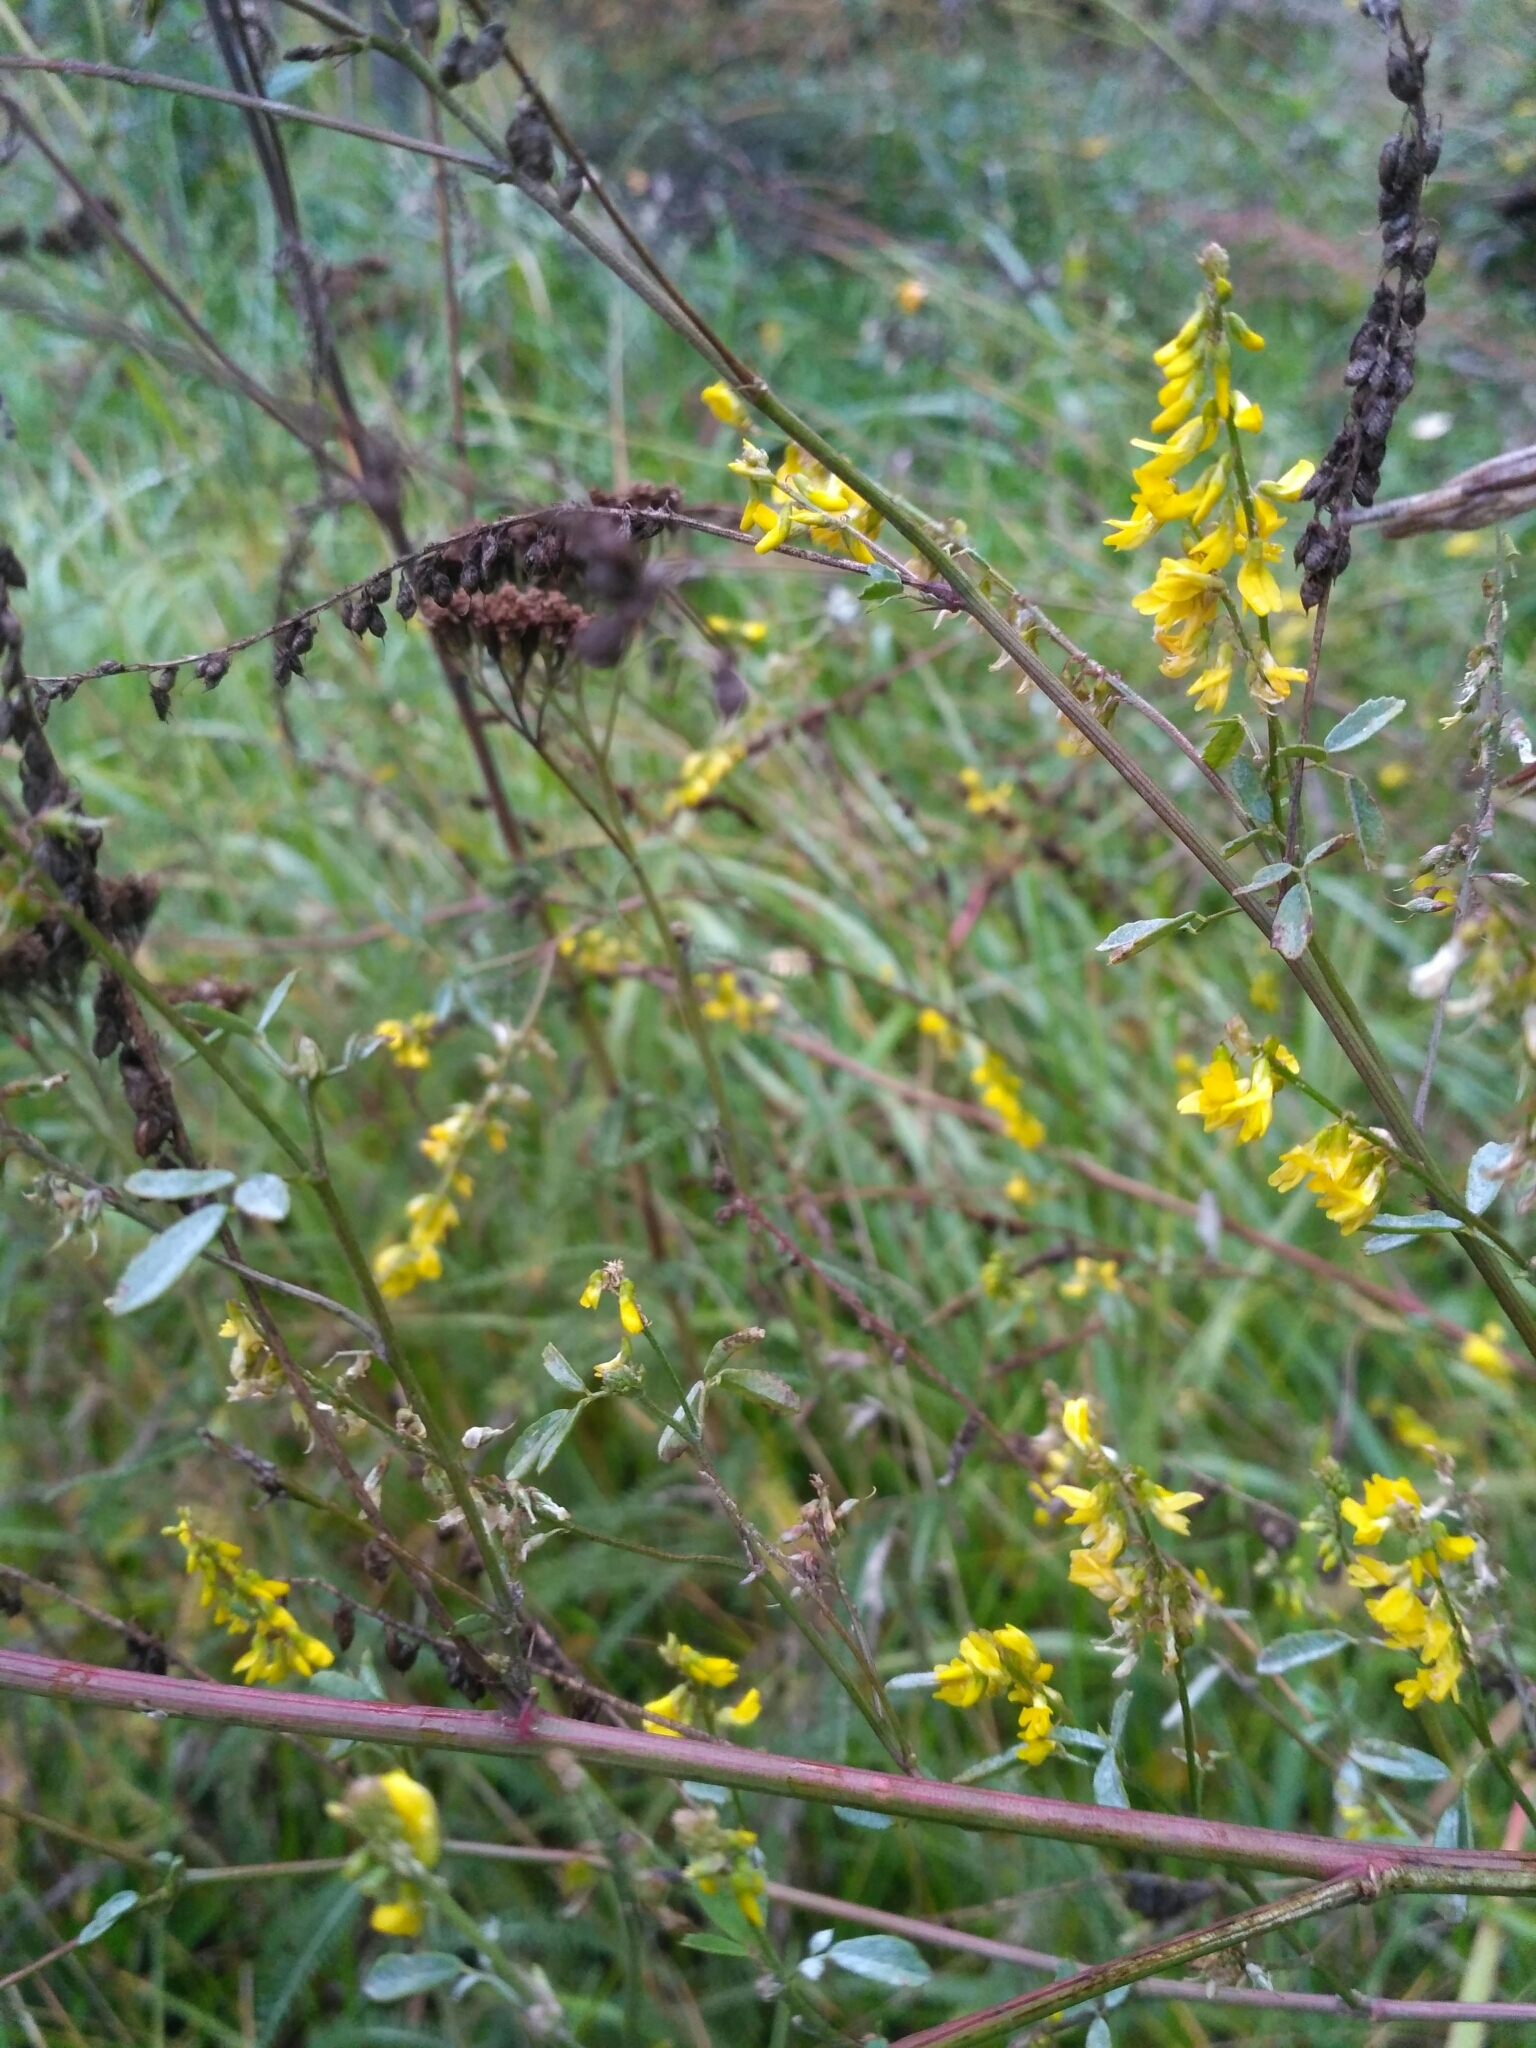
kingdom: Plantae
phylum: Tracheophyta
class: Magnoliopsida
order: Fabales
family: Fabaceae
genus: Melilotus
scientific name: Melilotus officinalis
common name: Sweetclover
